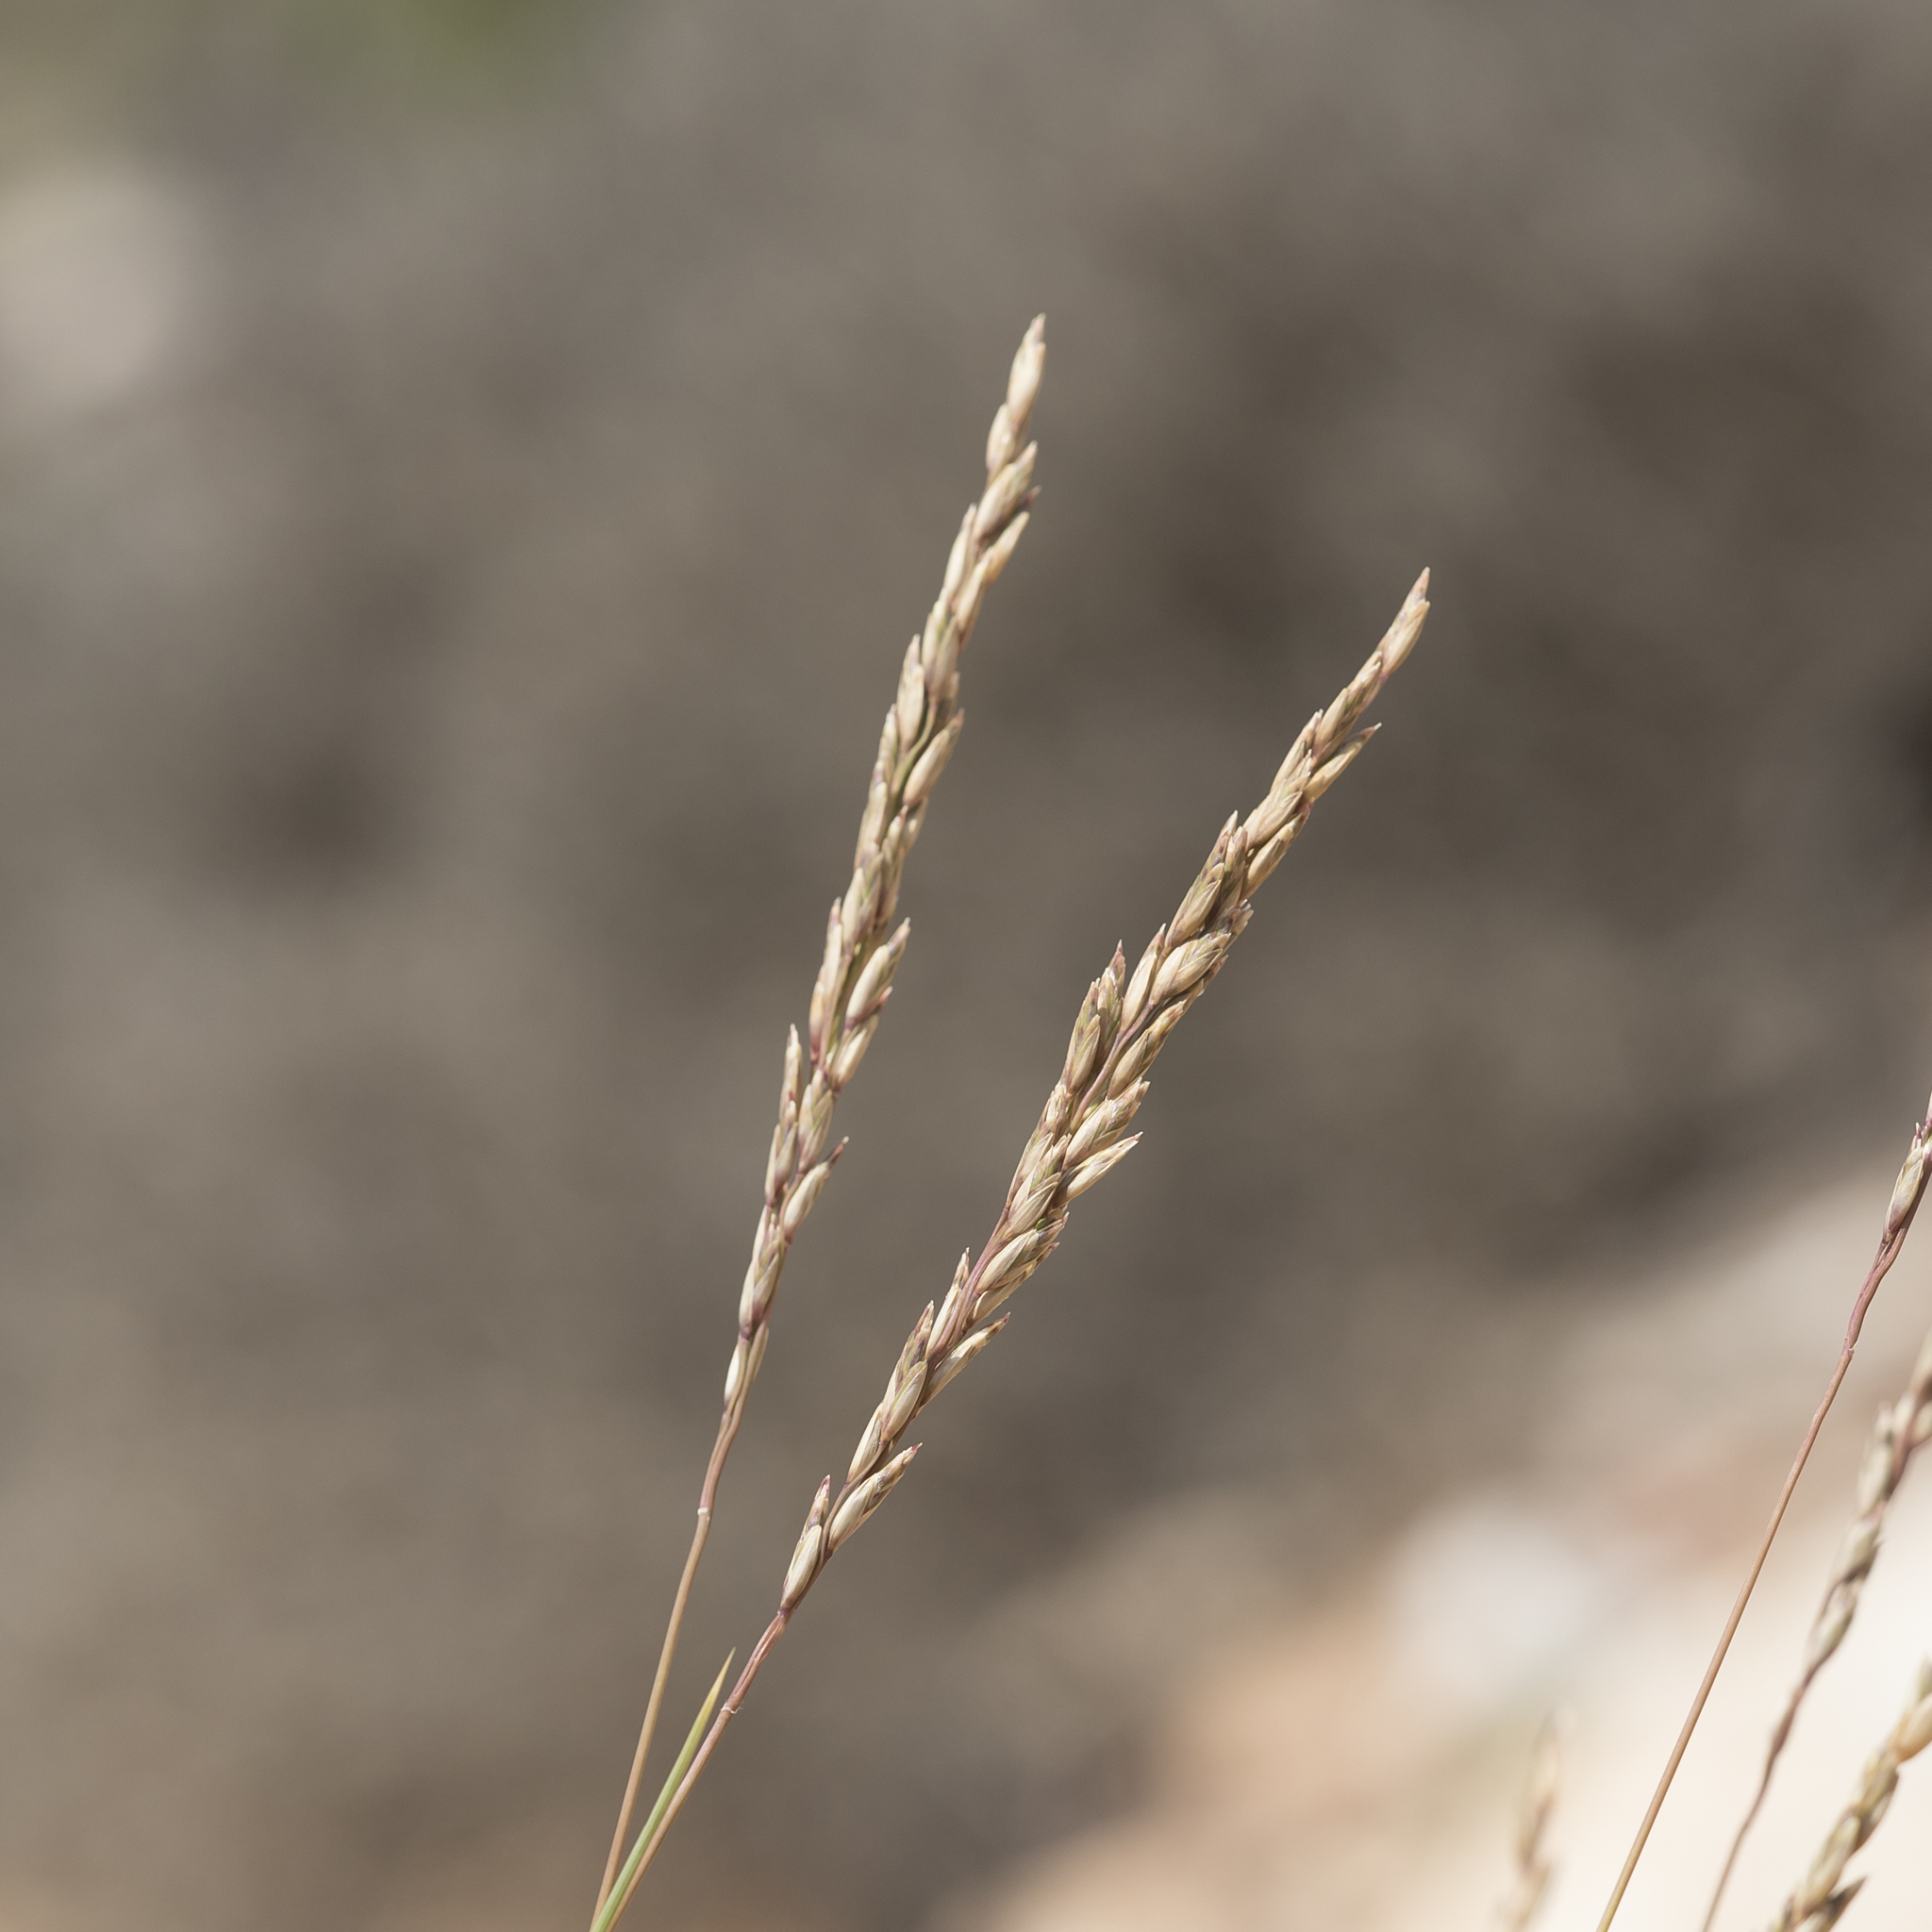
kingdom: Plantae
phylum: Tracheophyta
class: Liliopsida
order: Poales
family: Poaceae
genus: Triodia
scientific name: Triodia scariosa
